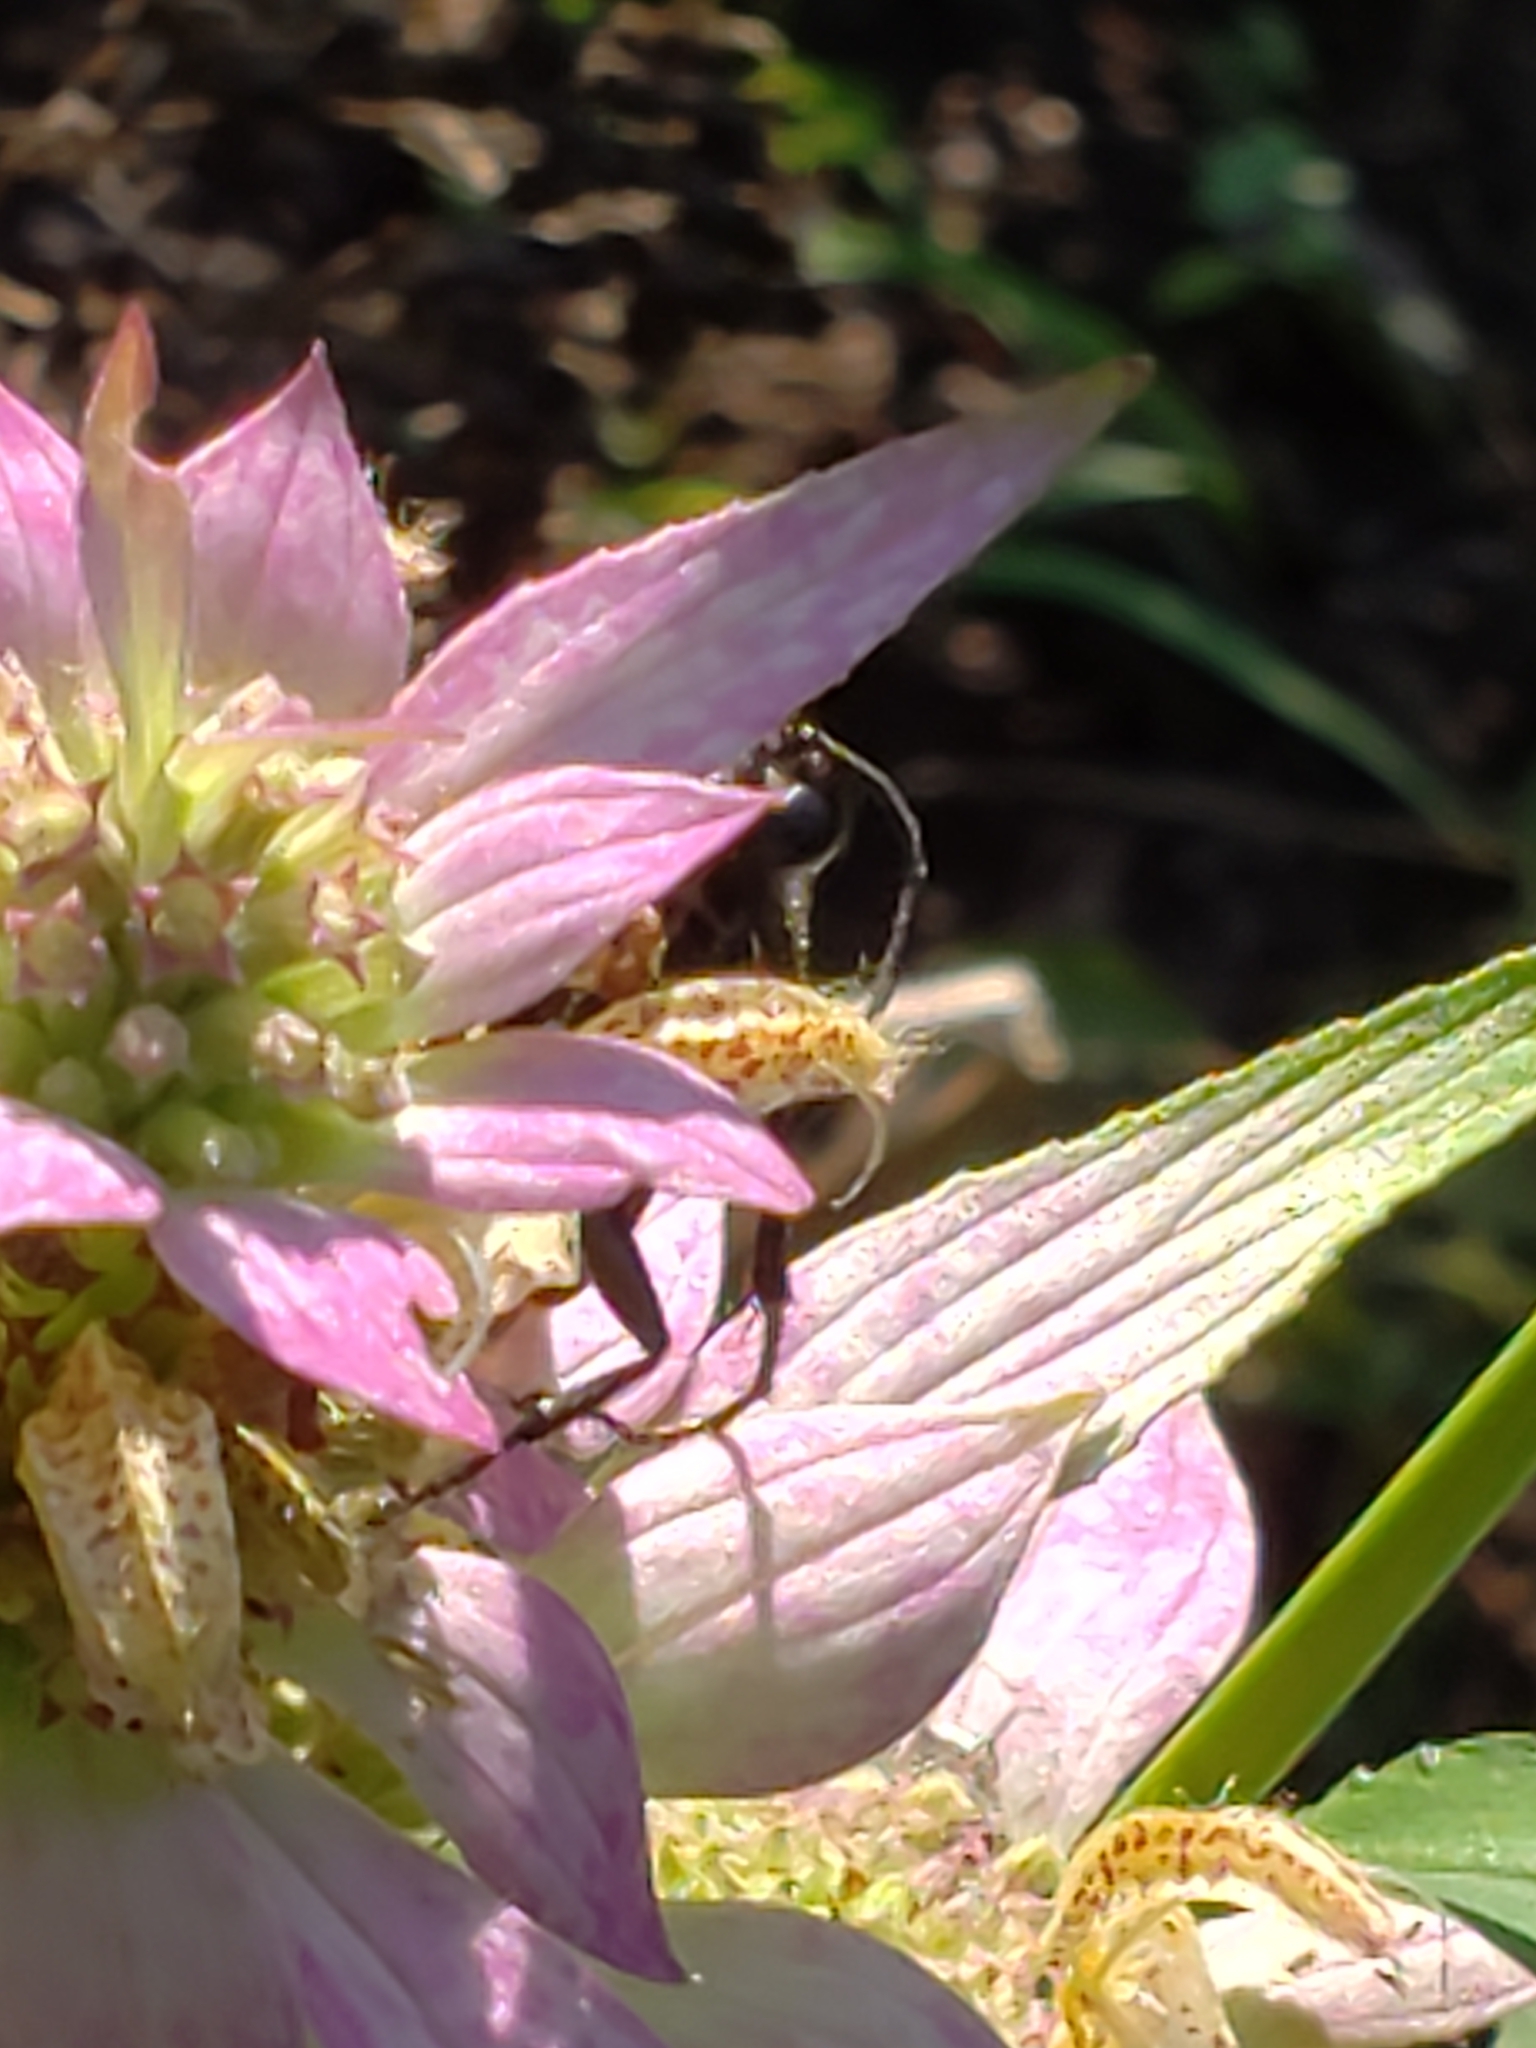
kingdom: Plantae
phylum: Tracheophyta
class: Magnoliopsida
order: Lamiales
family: Lamiaceae
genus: Monarda
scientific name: Monarda punctata
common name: Dotted monarda
